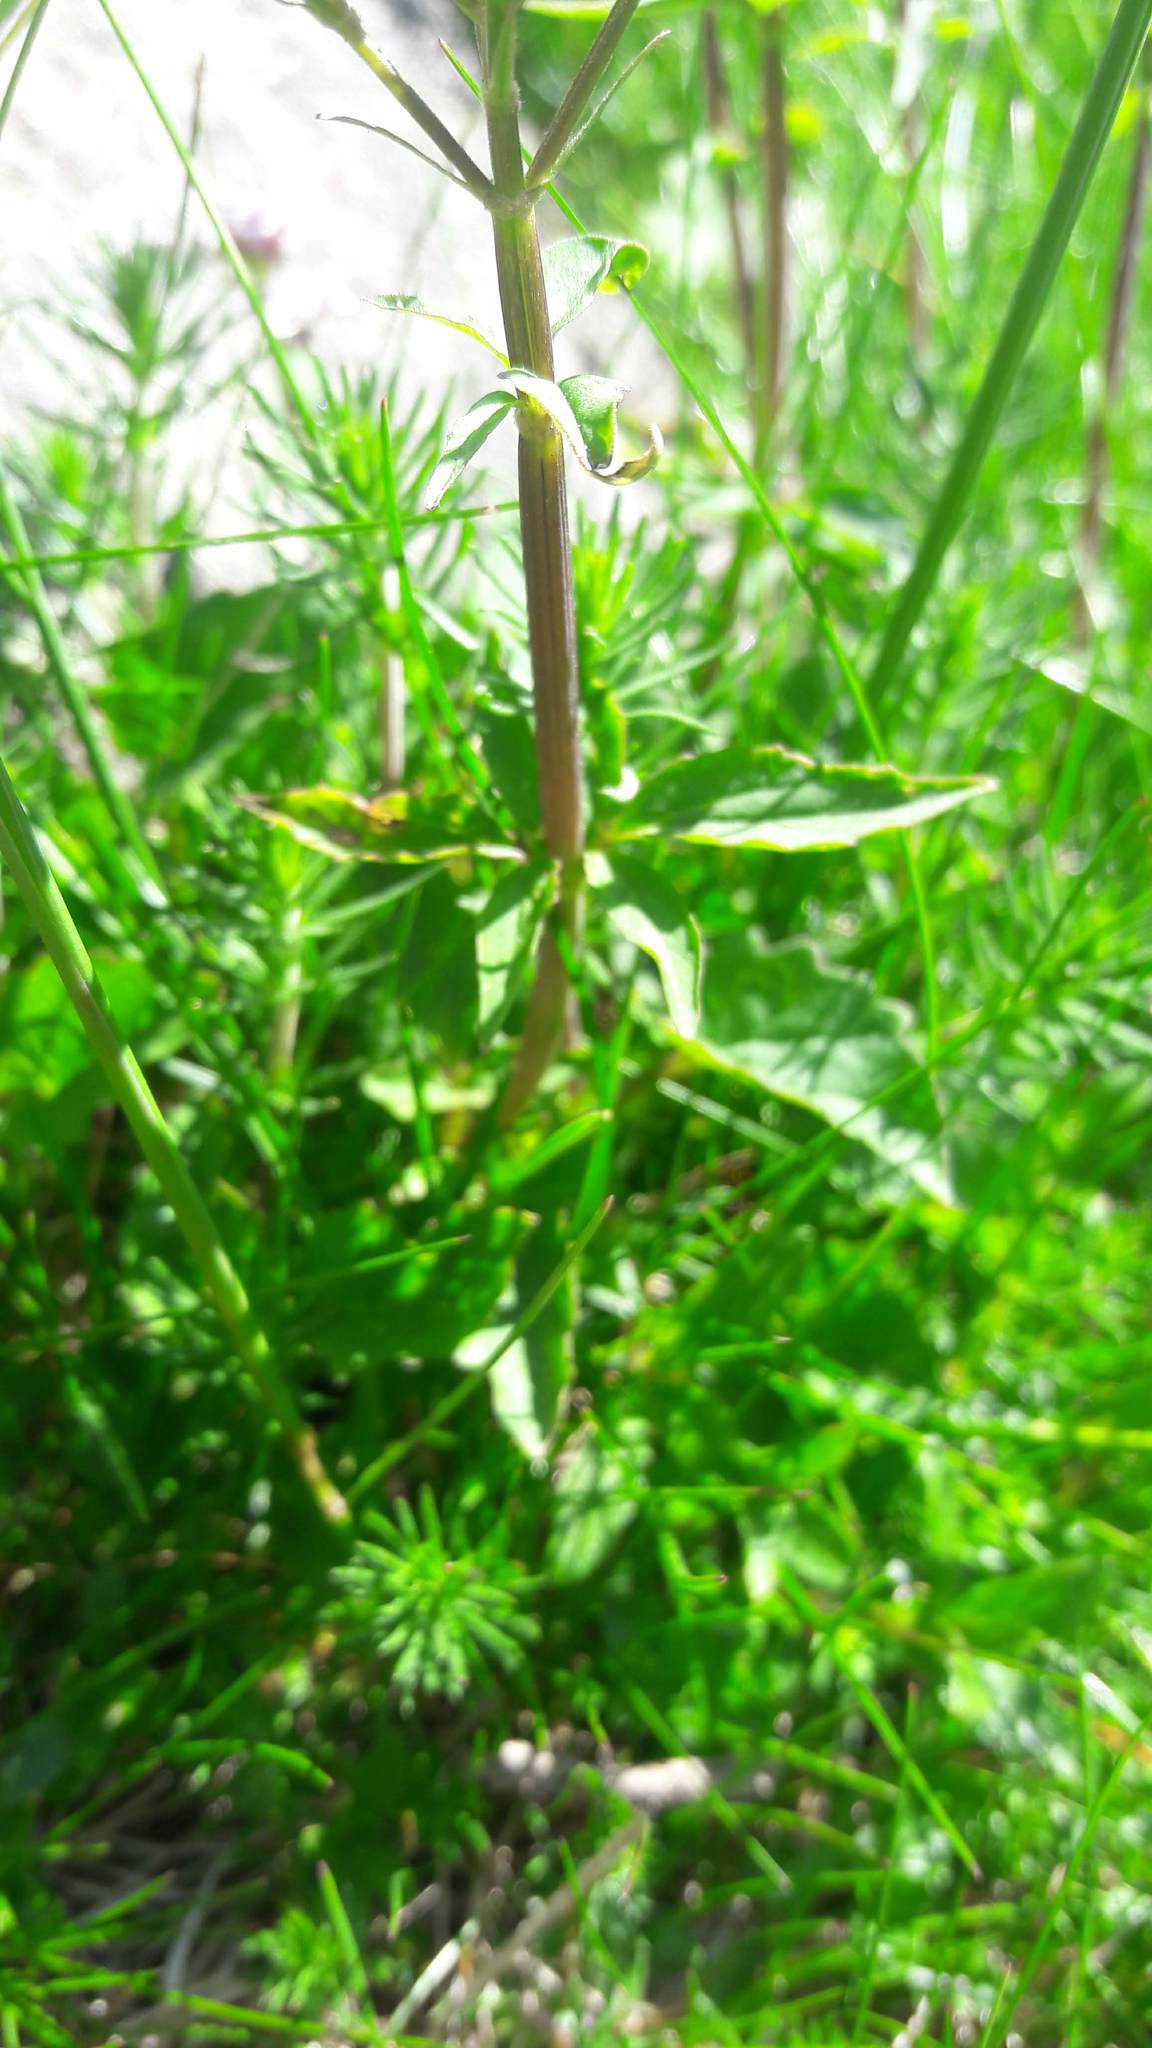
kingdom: Plantae
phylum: Tracheophyta
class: Magnoliopsida
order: Dipsacales
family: Caprifoliaceae
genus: Valeriana
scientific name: Valeriana officinalis
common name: Common valerian
